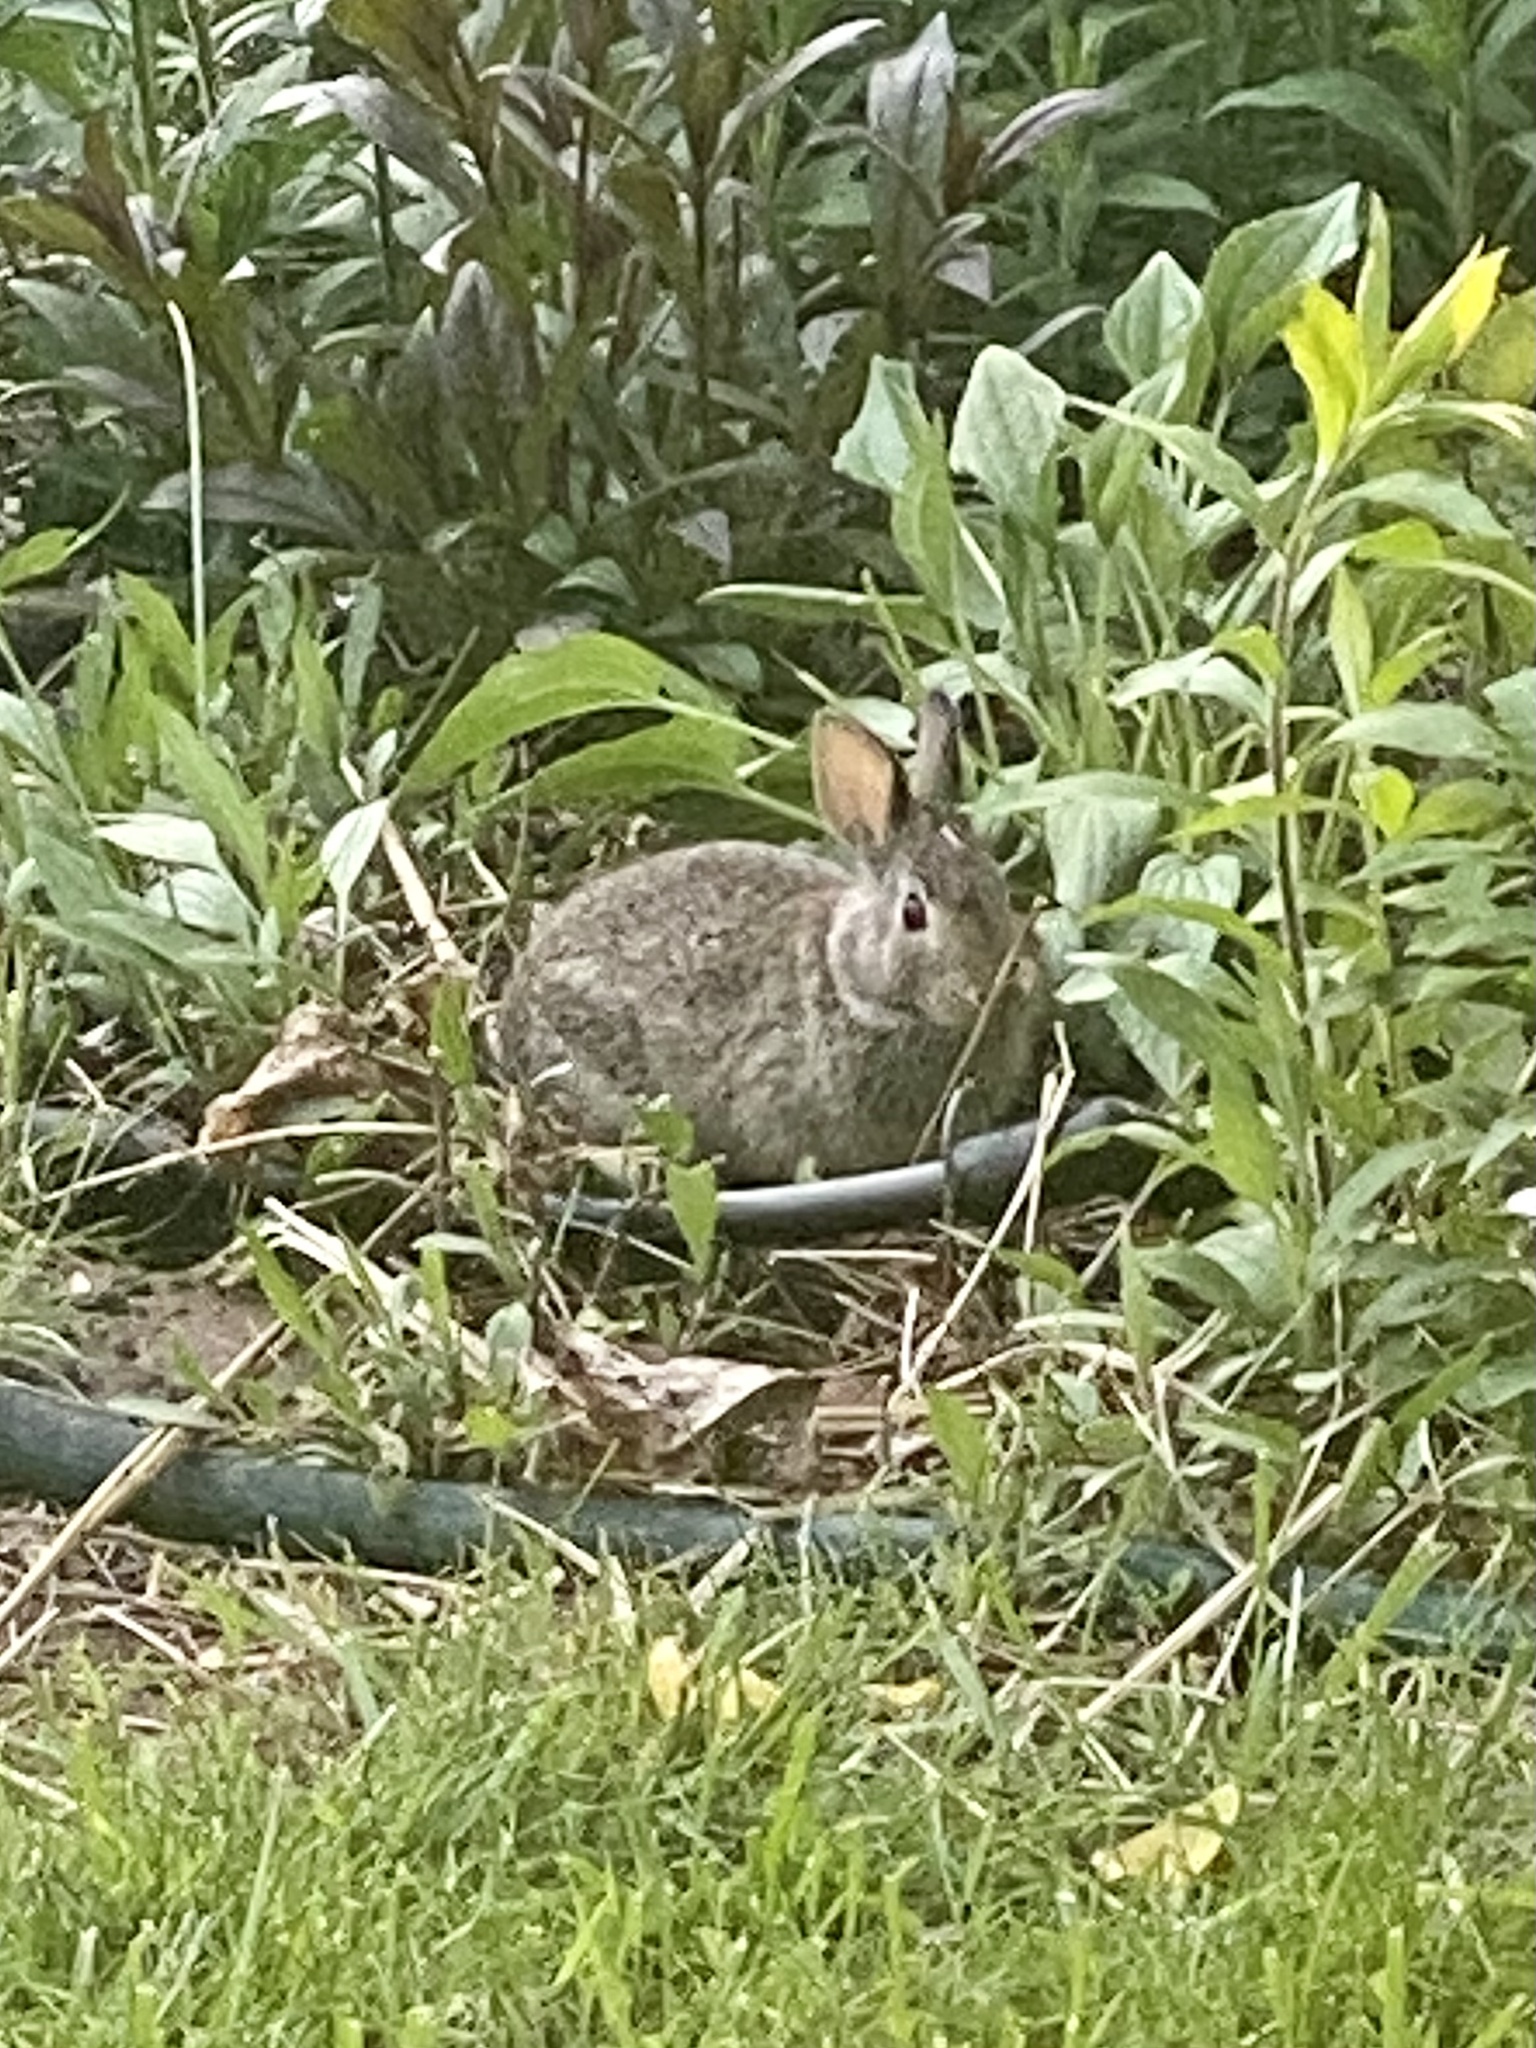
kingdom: Animalia
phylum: Chordata
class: Mammalia
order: Lagomorpha
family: Leporidae
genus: Sylvilagus
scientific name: Sylvilagus floridanus
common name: Eastern cottontail
